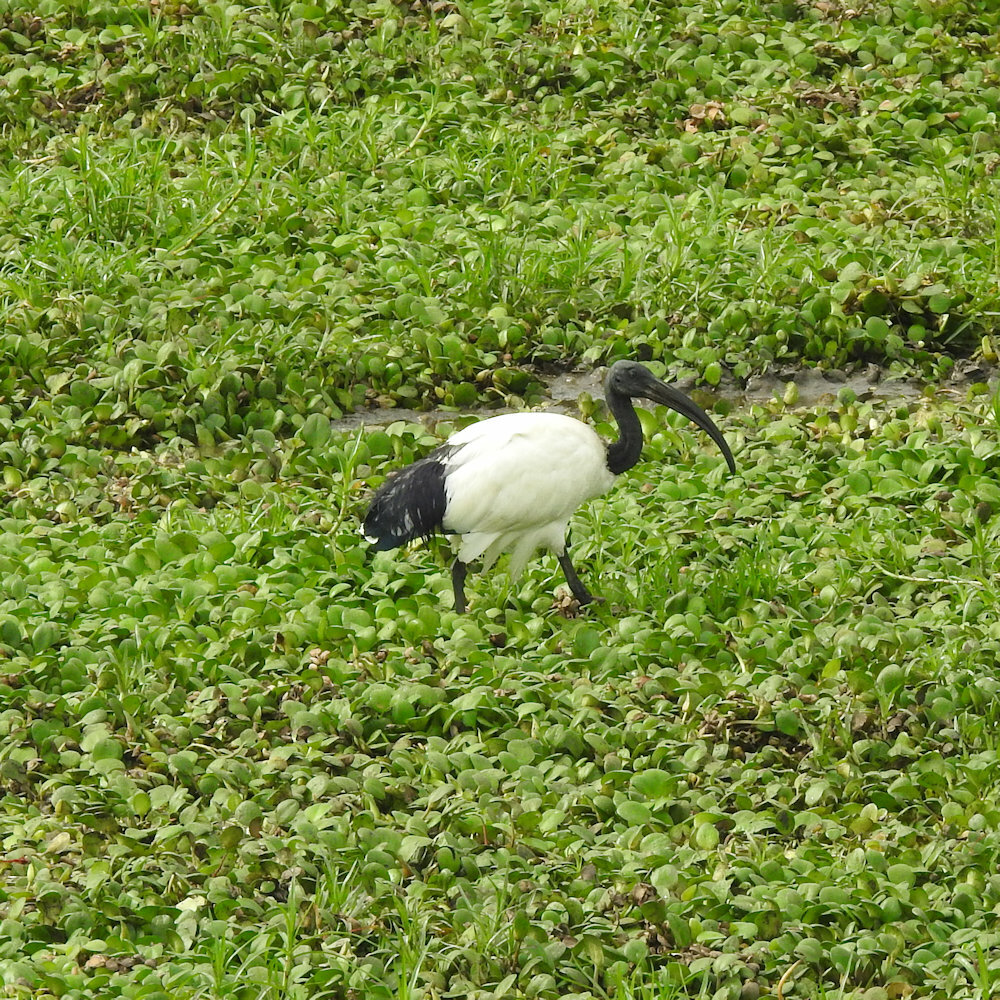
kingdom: Animalia
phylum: Chordata
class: Aves
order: Pelecaniformes
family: Threskiornithidae
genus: Threskiornis
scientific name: Threskiornis aethiopicus
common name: Sacred ibis
